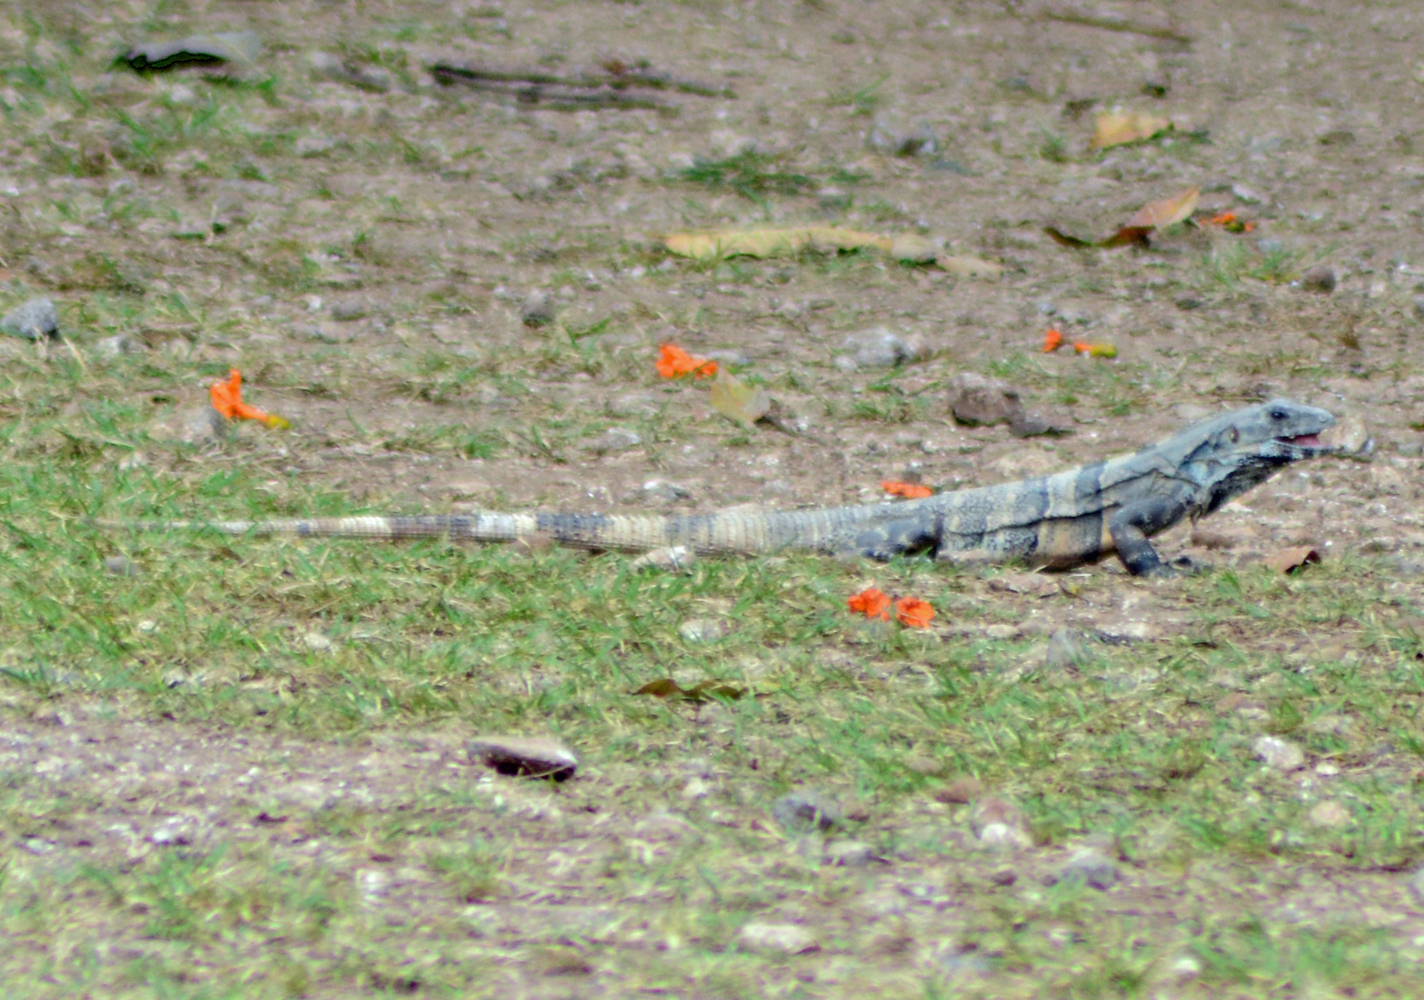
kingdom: Animalia
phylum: Chordata
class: Squamata
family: Iguanidae
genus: Ctenosaura
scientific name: Ctenosaura similis
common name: Black spiny-tailed iguana
